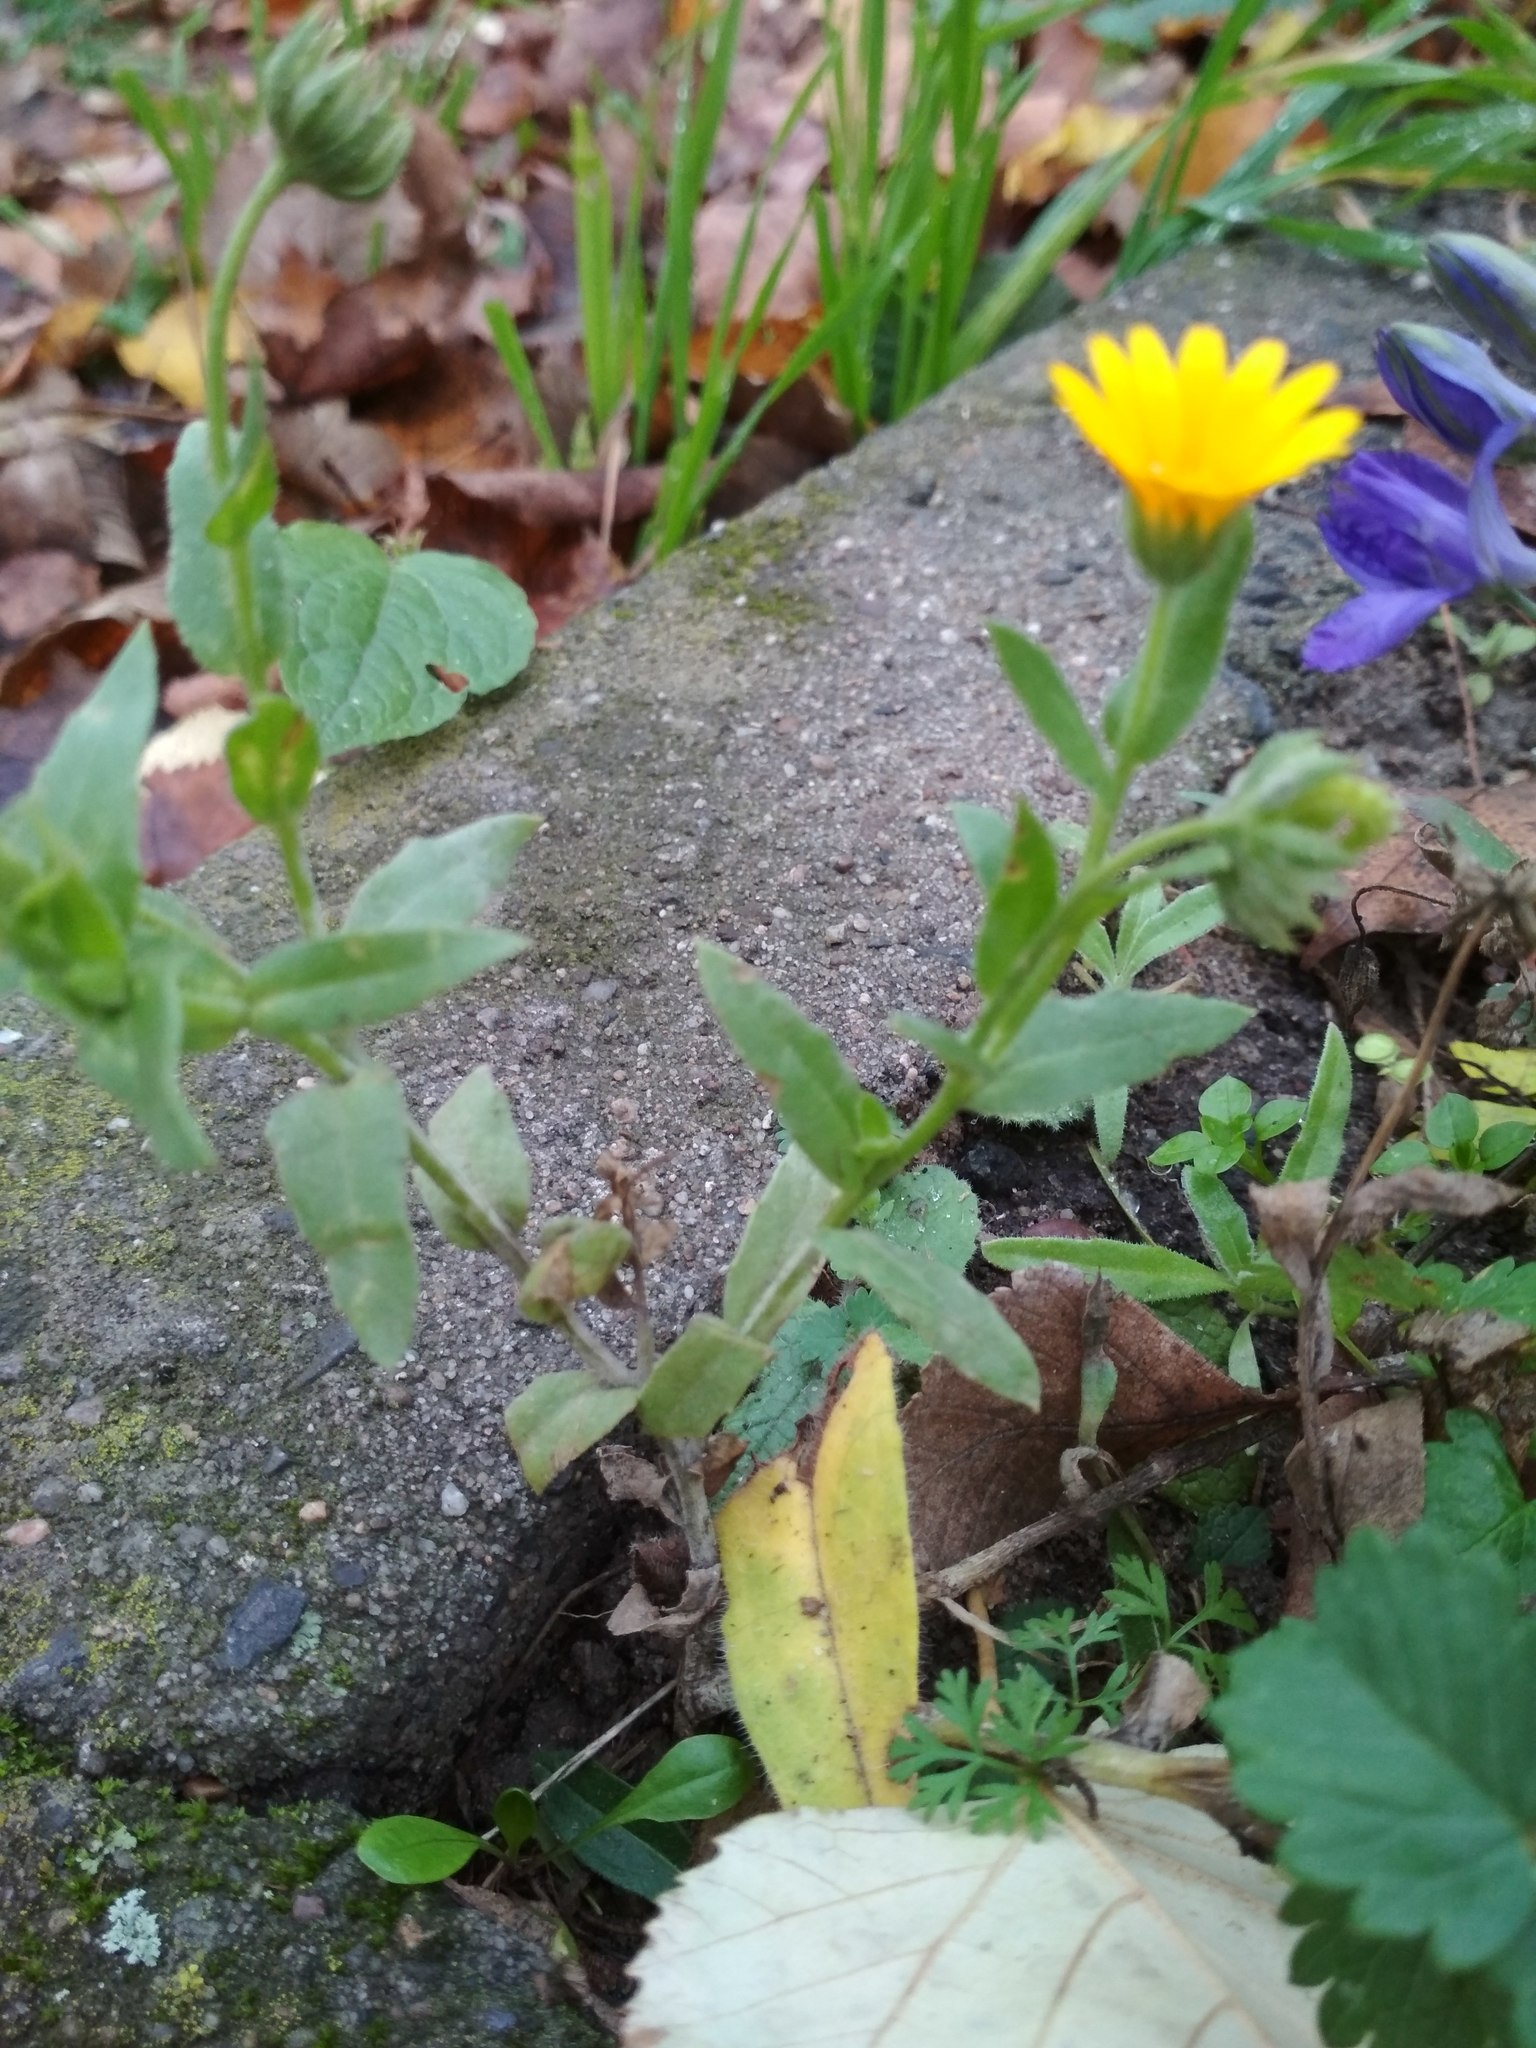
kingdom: Plantae
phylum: Tracheophyta
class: Magnoliopsida
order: Asterales
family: Asteraceae
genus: Calendula
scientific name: Calendula arvensis
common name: Field marigold
